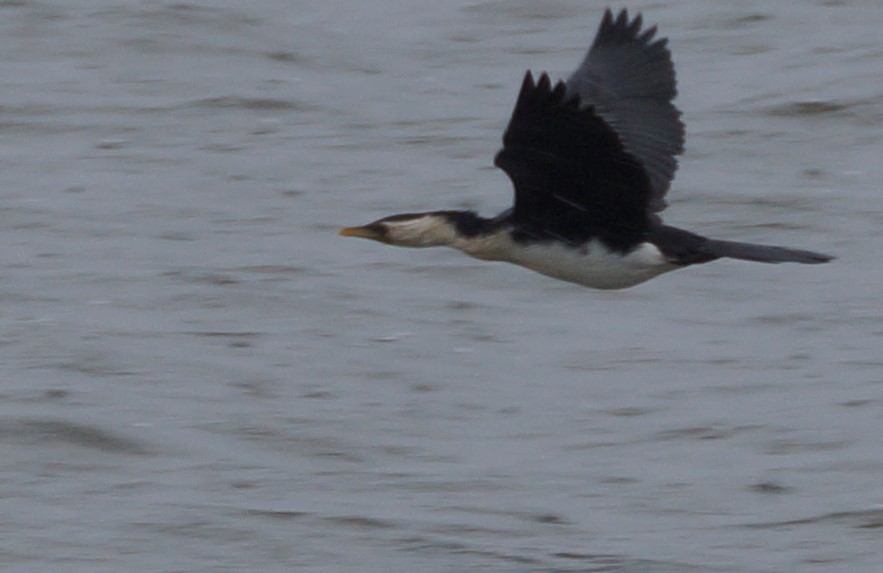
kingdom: Animalia
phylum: Chordata
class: Aves
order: Suliformes
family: Phalacrocoracidae
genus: Microcarbo
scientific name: Microcarbo melanoleucos
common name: Little pied cormorant
